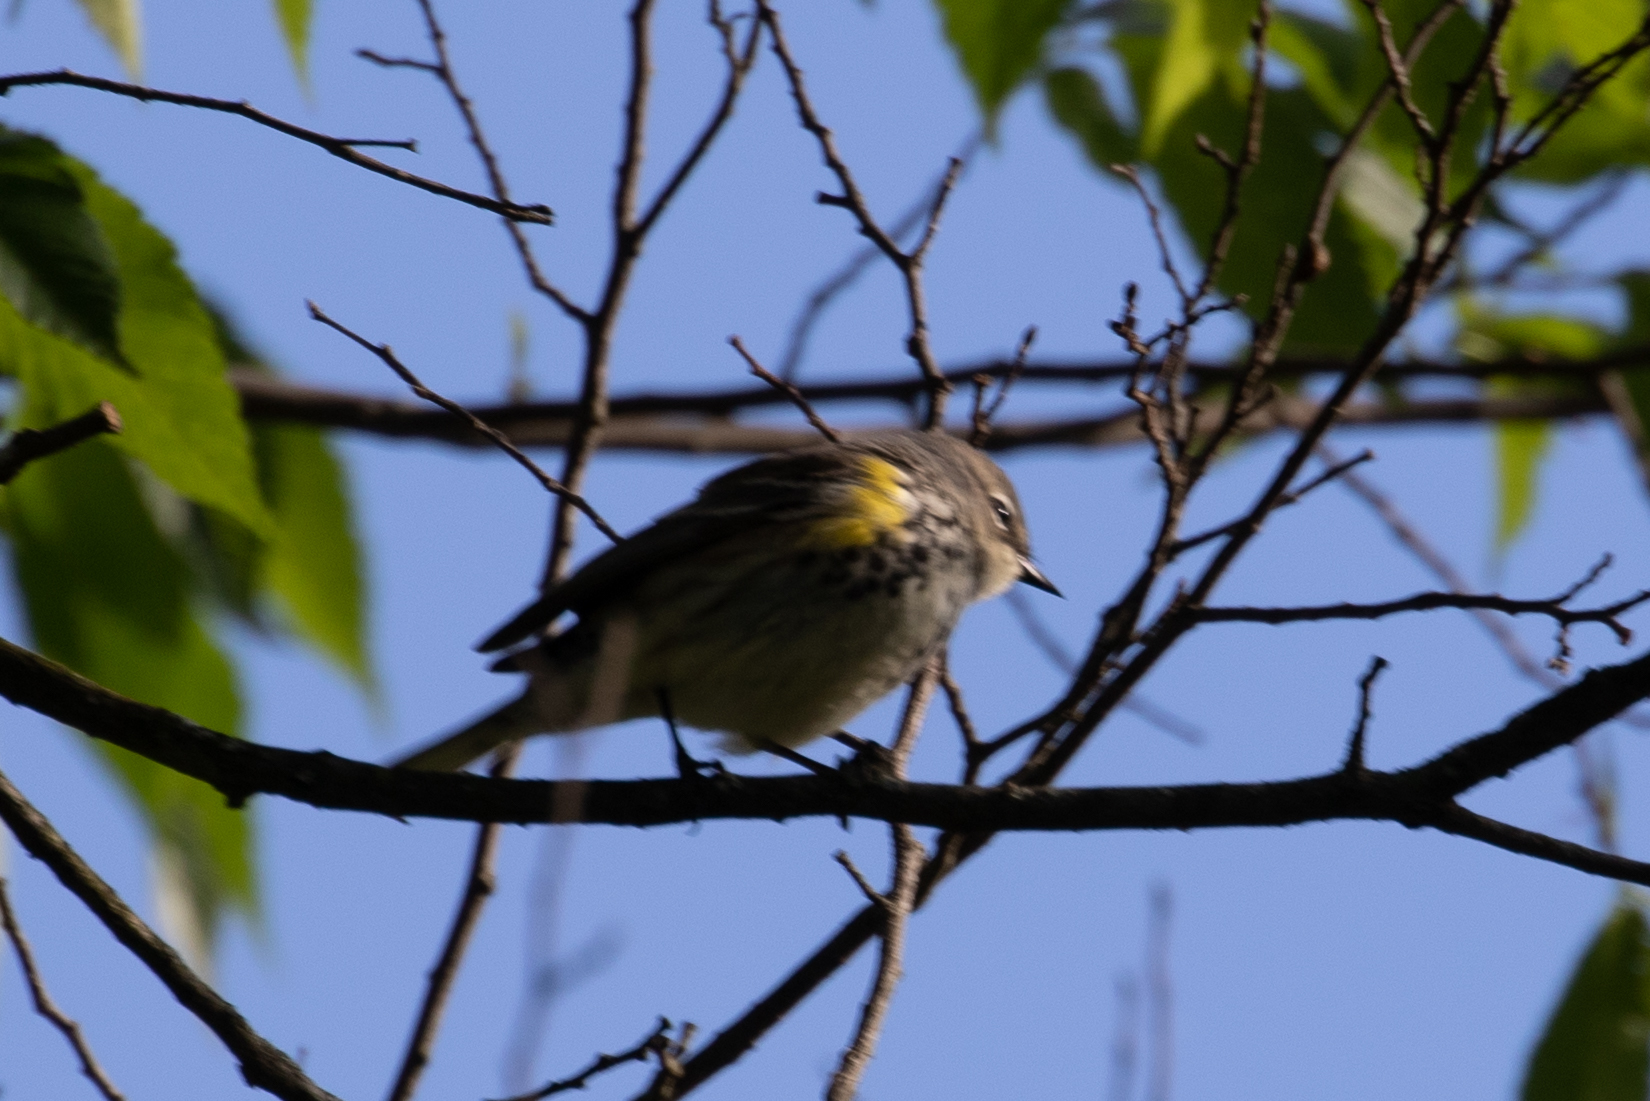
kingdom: Animalia
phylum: Chordata
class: Aves
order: Passeriformes
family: Parulidae
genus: Setophaga
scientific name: Setophaga coronata
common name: Myrtle warbler
